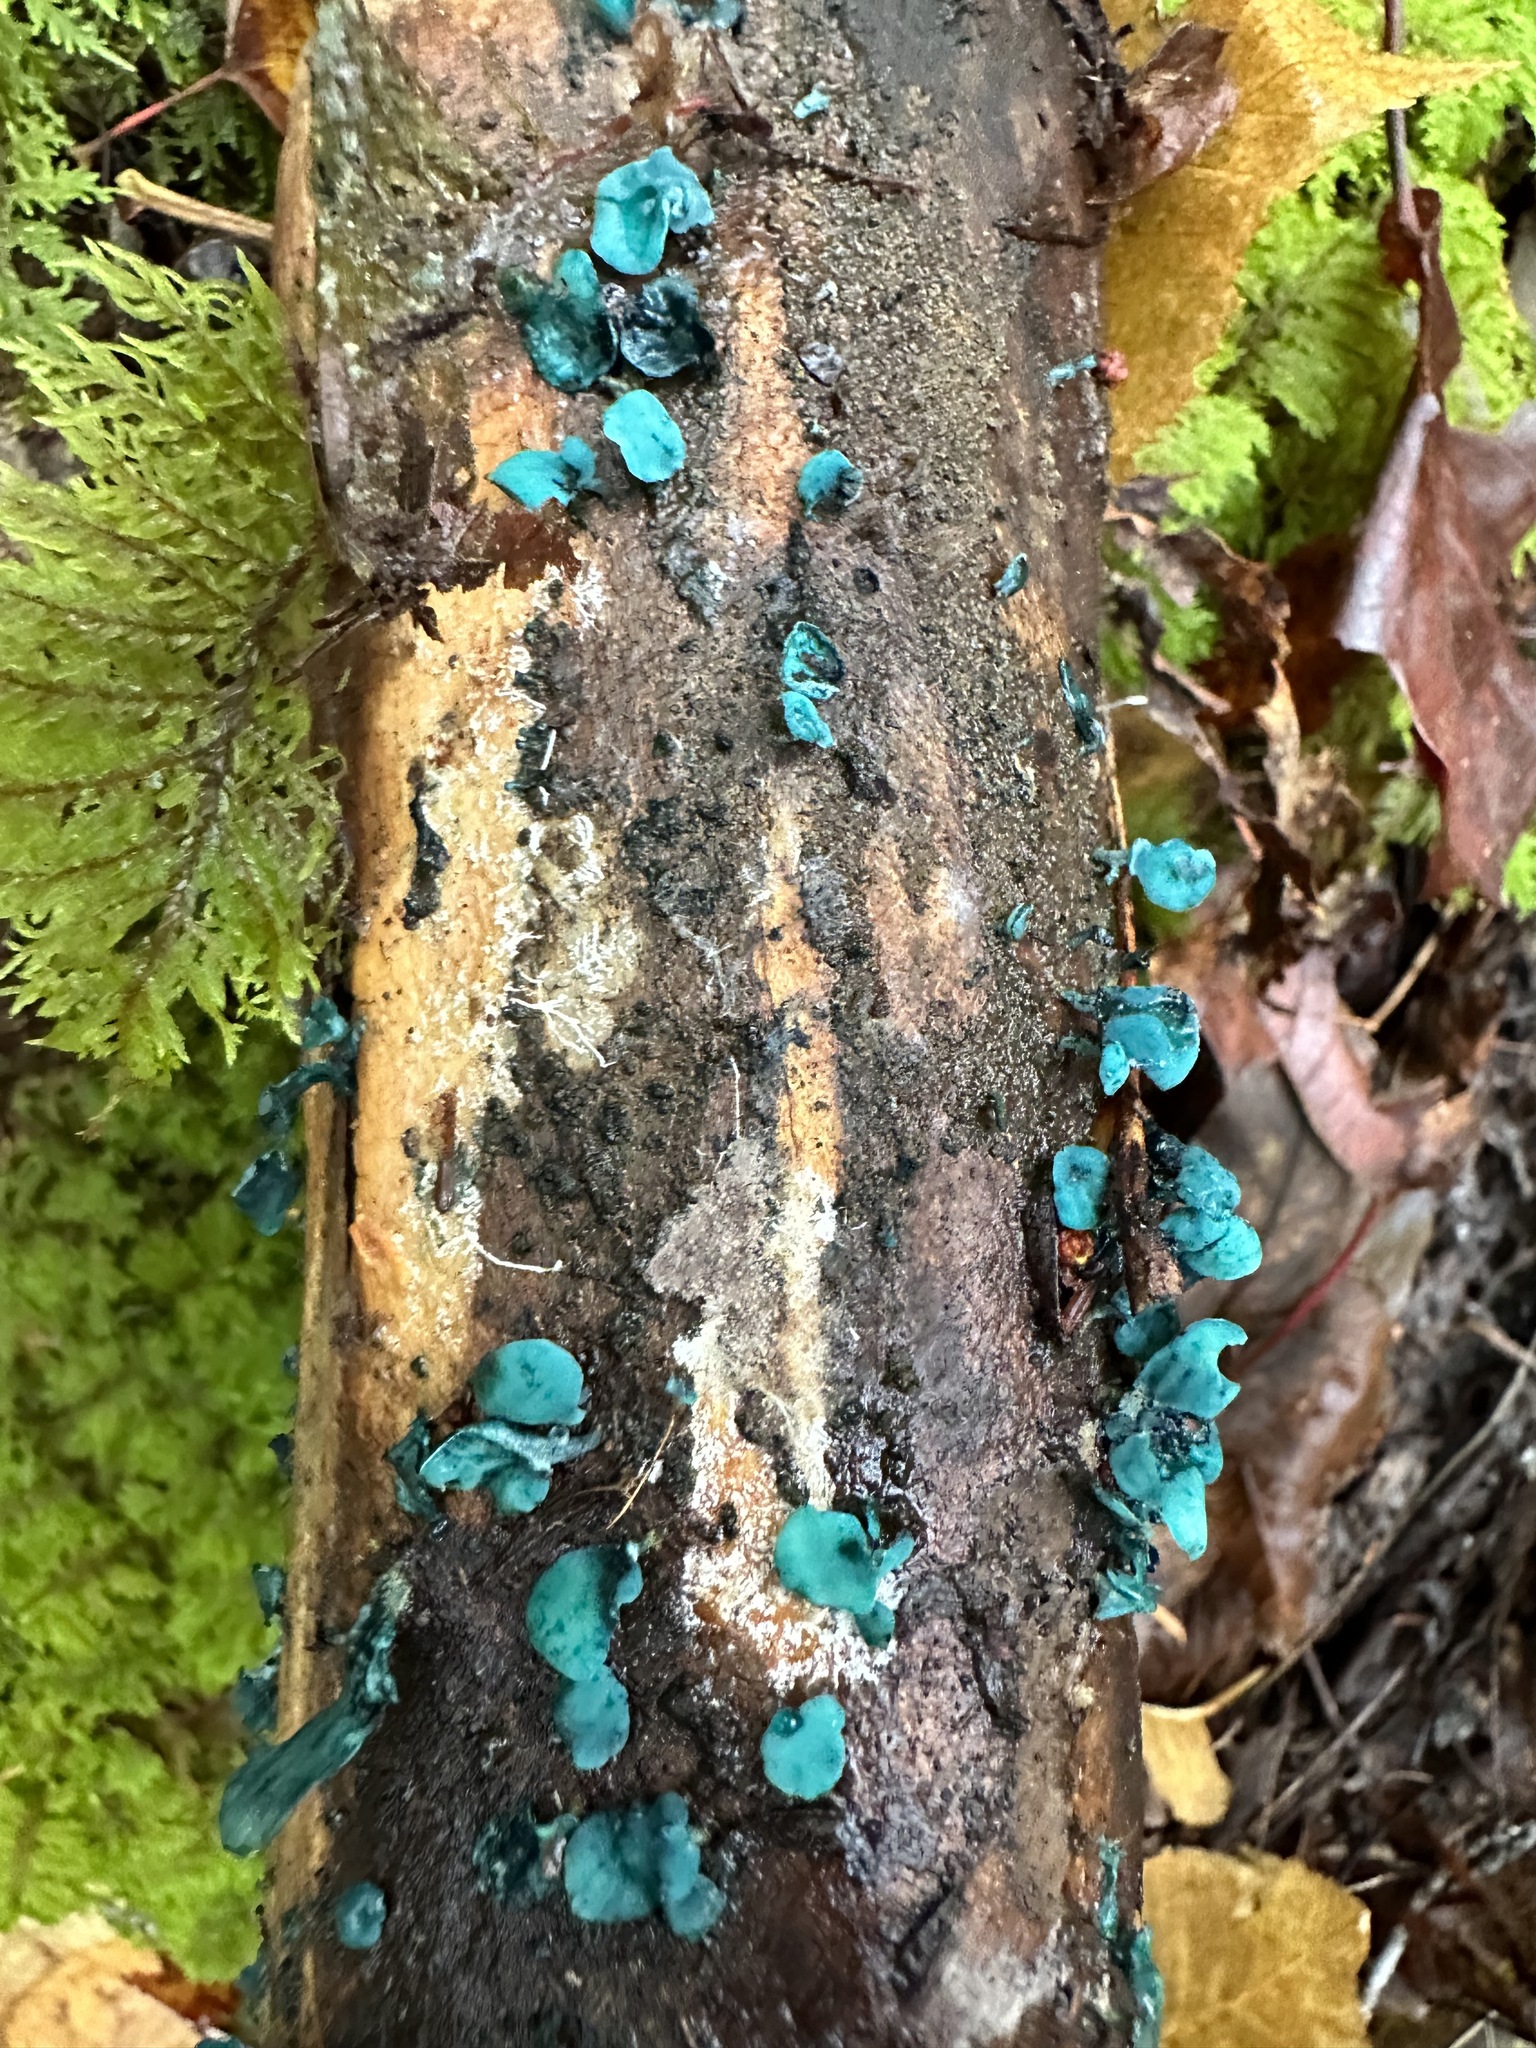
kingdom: Fungi
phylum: Ascomycota
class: Leotiomycetes
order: Helotiales
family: Chlorociboriaceae
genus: Chlorociboria
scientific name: Chlorociboria aeruginascens
